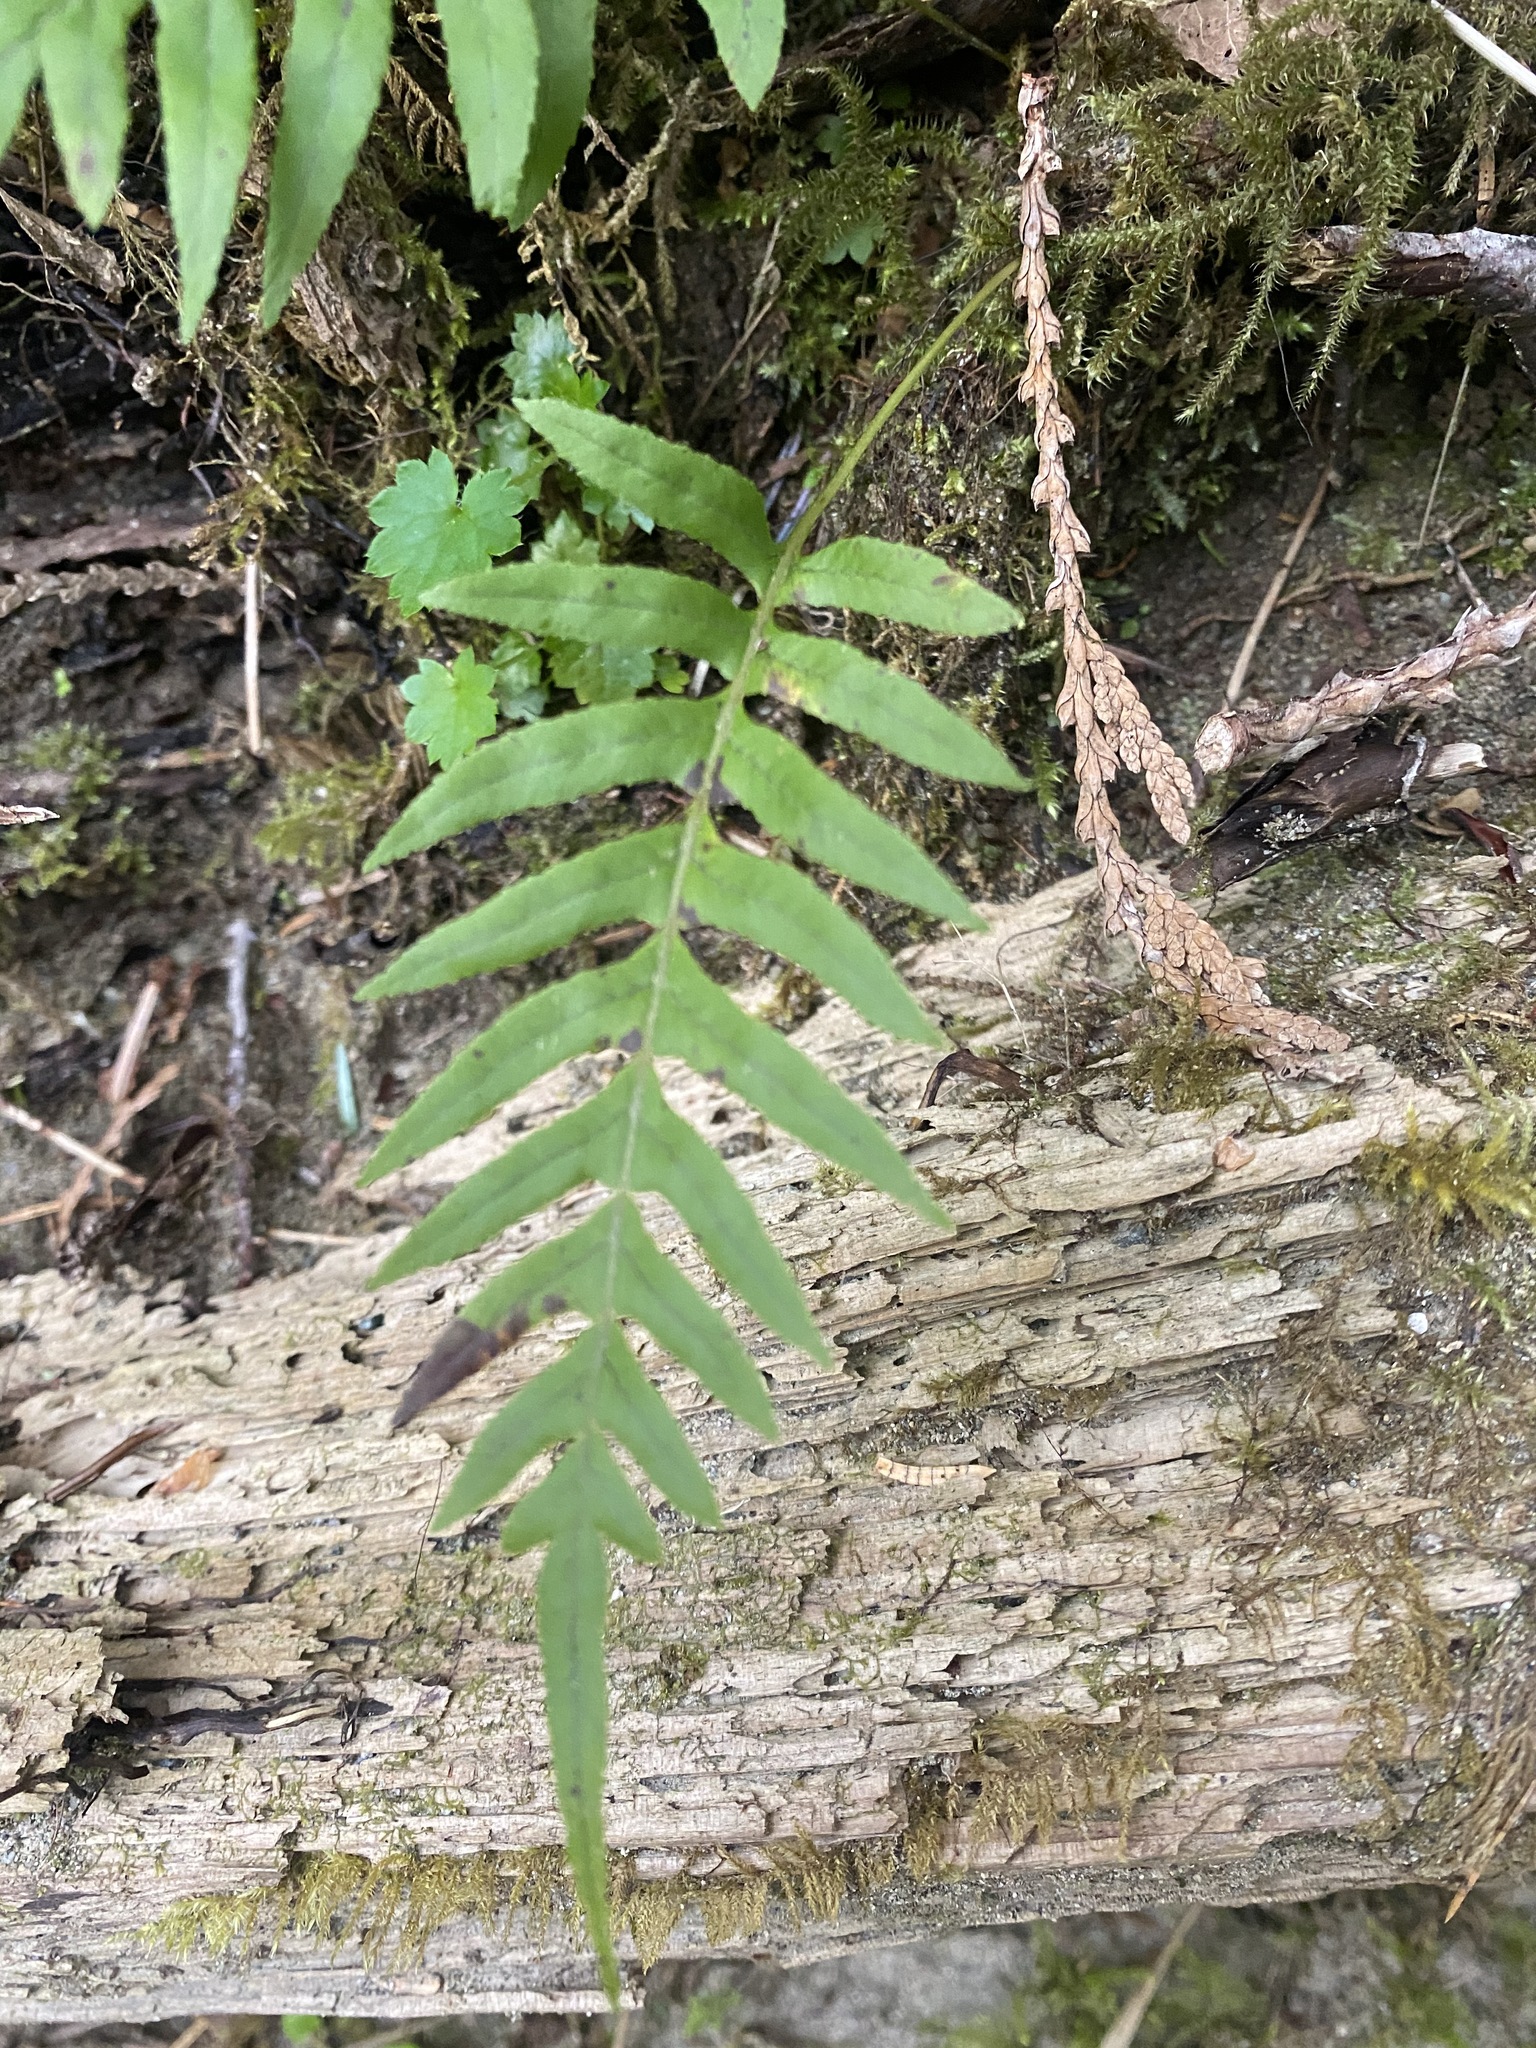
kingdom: Plantae
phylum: Tracheophyta
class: Polypodiopsida
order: Polypodiales
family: Polypodiaceae
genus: Polypodium
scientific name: Polypodium glycyrrhiza
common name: Licorice fern
